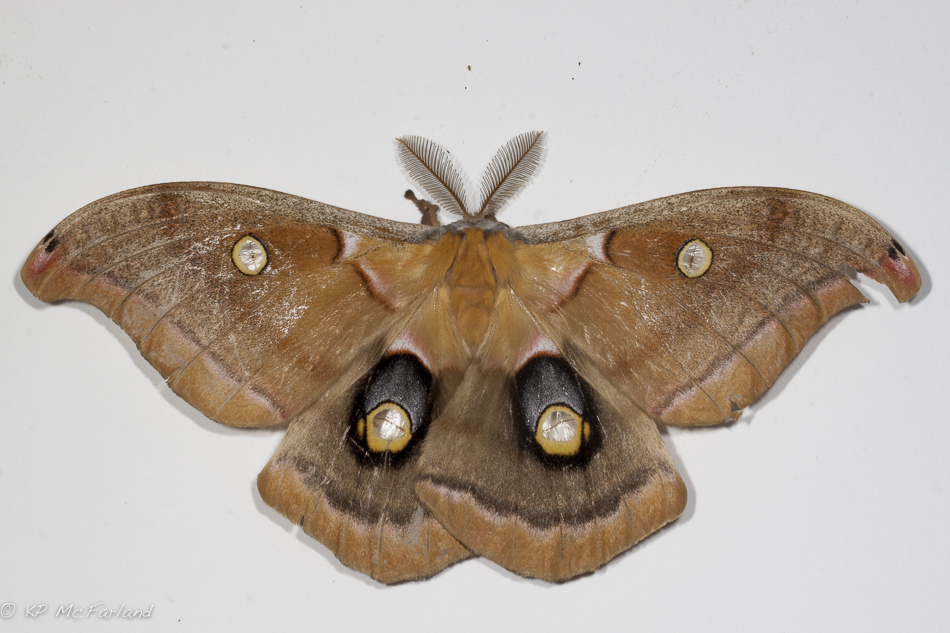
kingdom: Animalia
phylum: Arthropoda
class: Insecta
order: Lepidoptera
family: Saturniidae
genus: Antheraea
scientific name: Antheraea polyphemus
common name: Polyphemus moth
